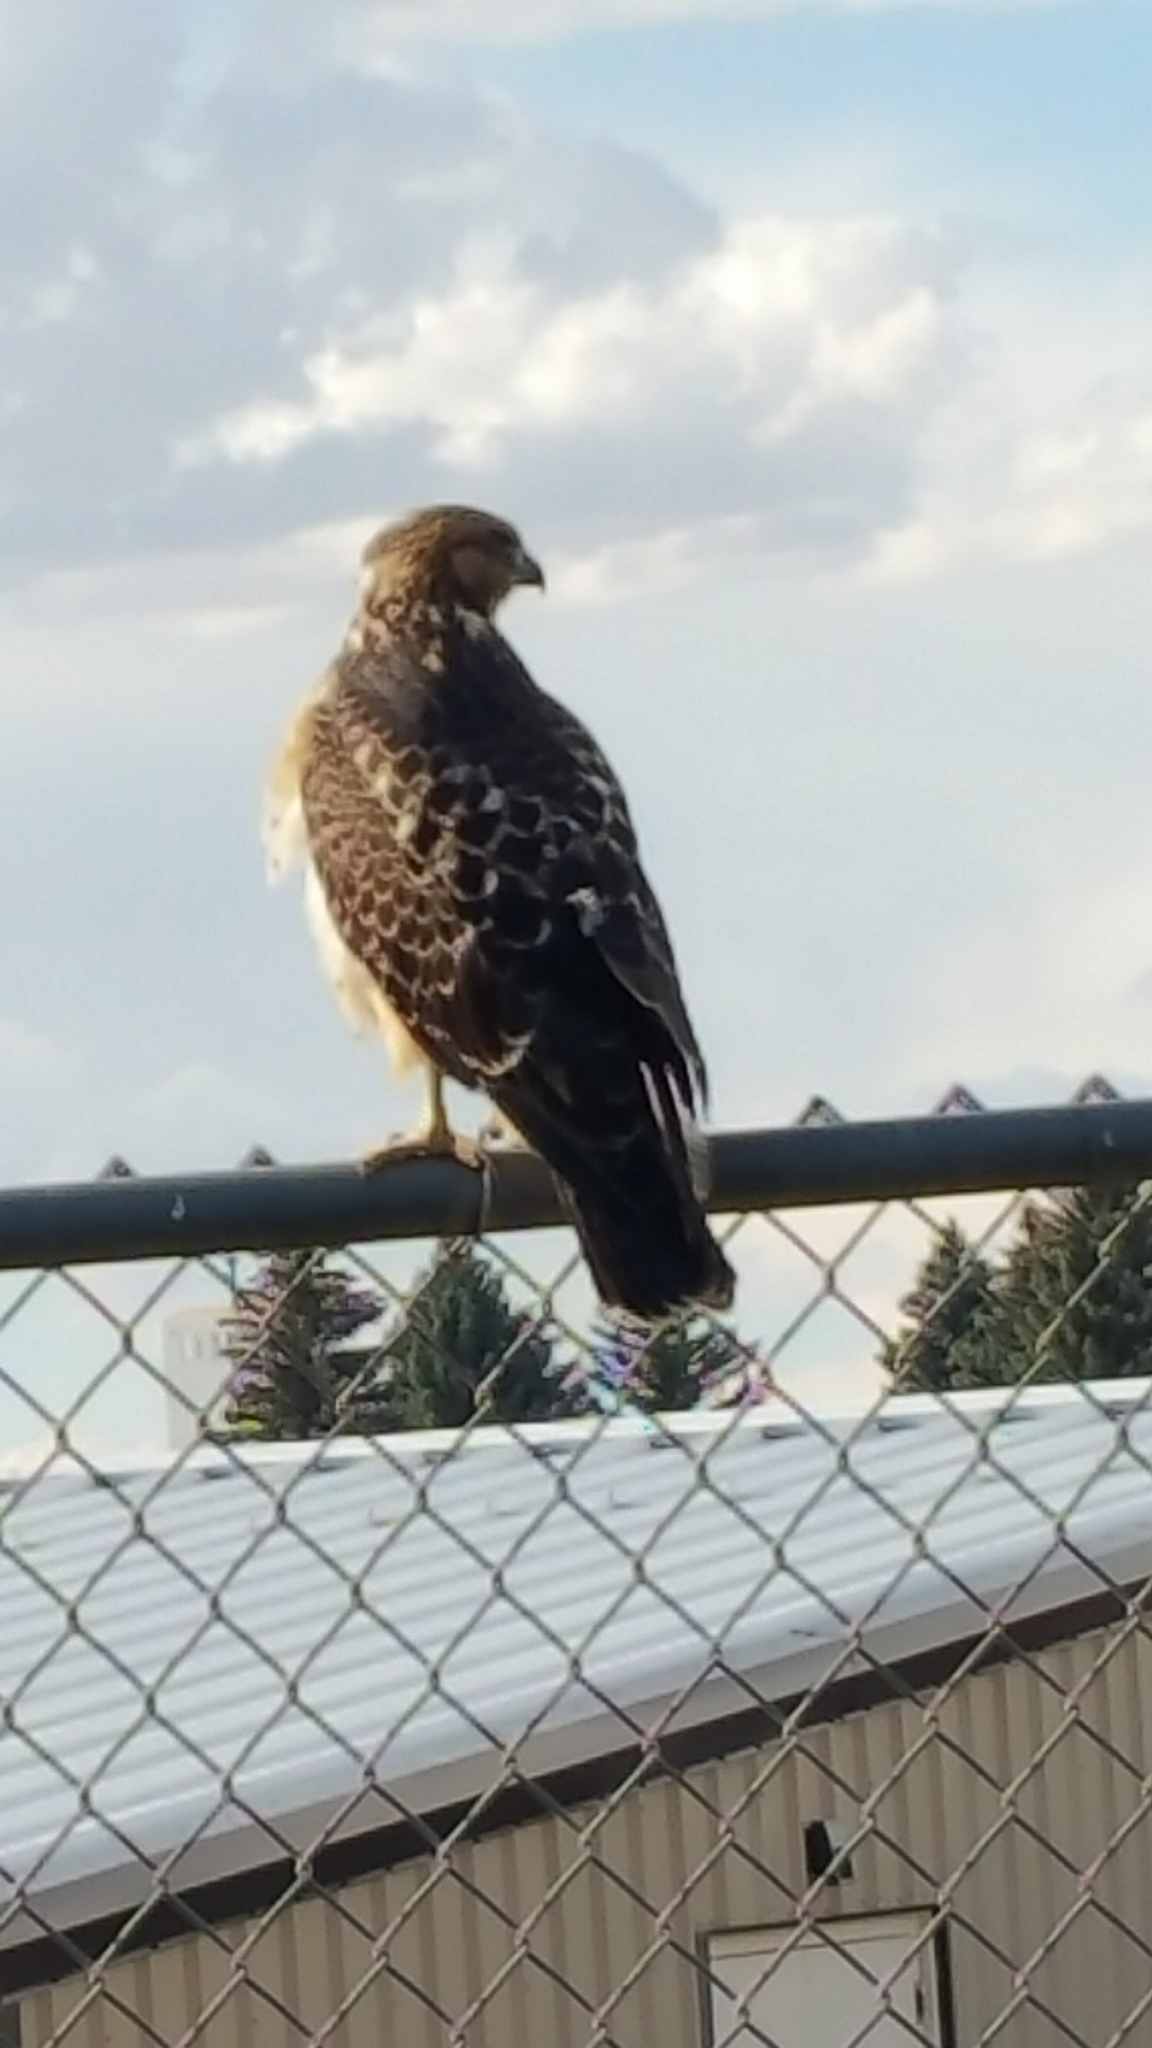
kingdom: Animalia
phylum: Chordata
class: Aves
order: Accipitriformes
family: Accipitridae
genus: Buteo
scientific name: Buteo jamaicensis
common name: Red-tailed hawk
